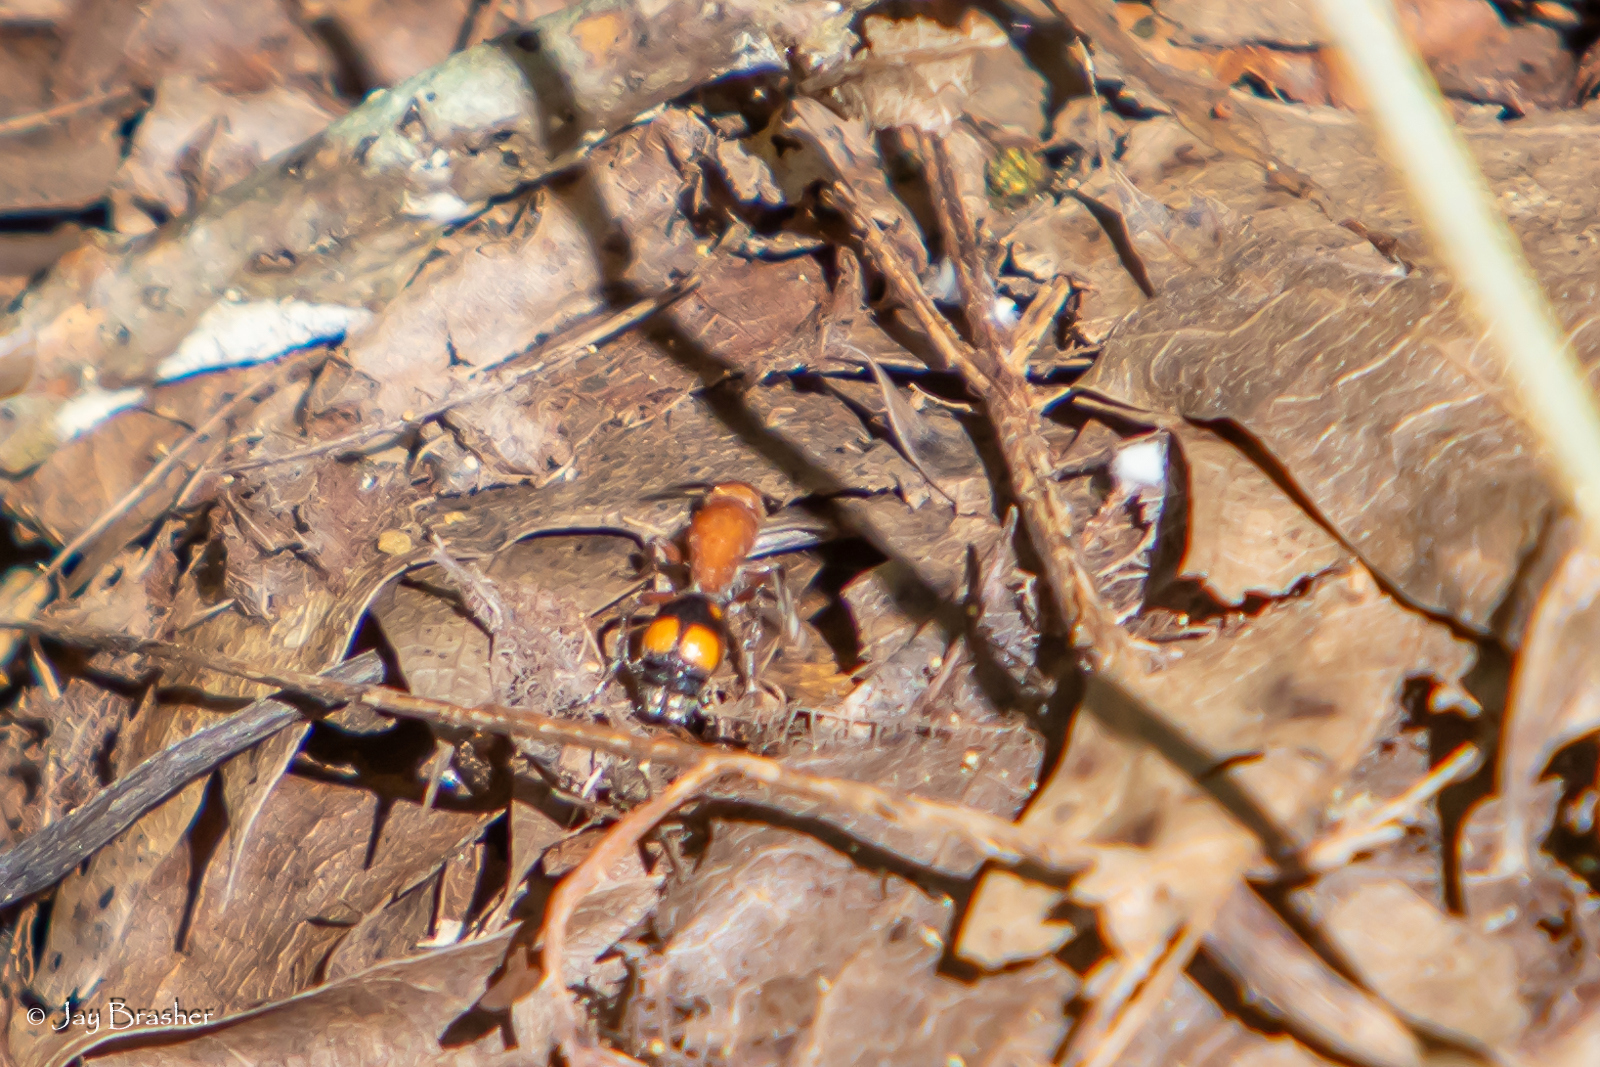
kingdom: Animalia
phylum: Arthropoda
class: Insecta
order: Hymenoptera
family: Mutillidae
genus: Dasymutilla
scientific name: Dasymutilla
